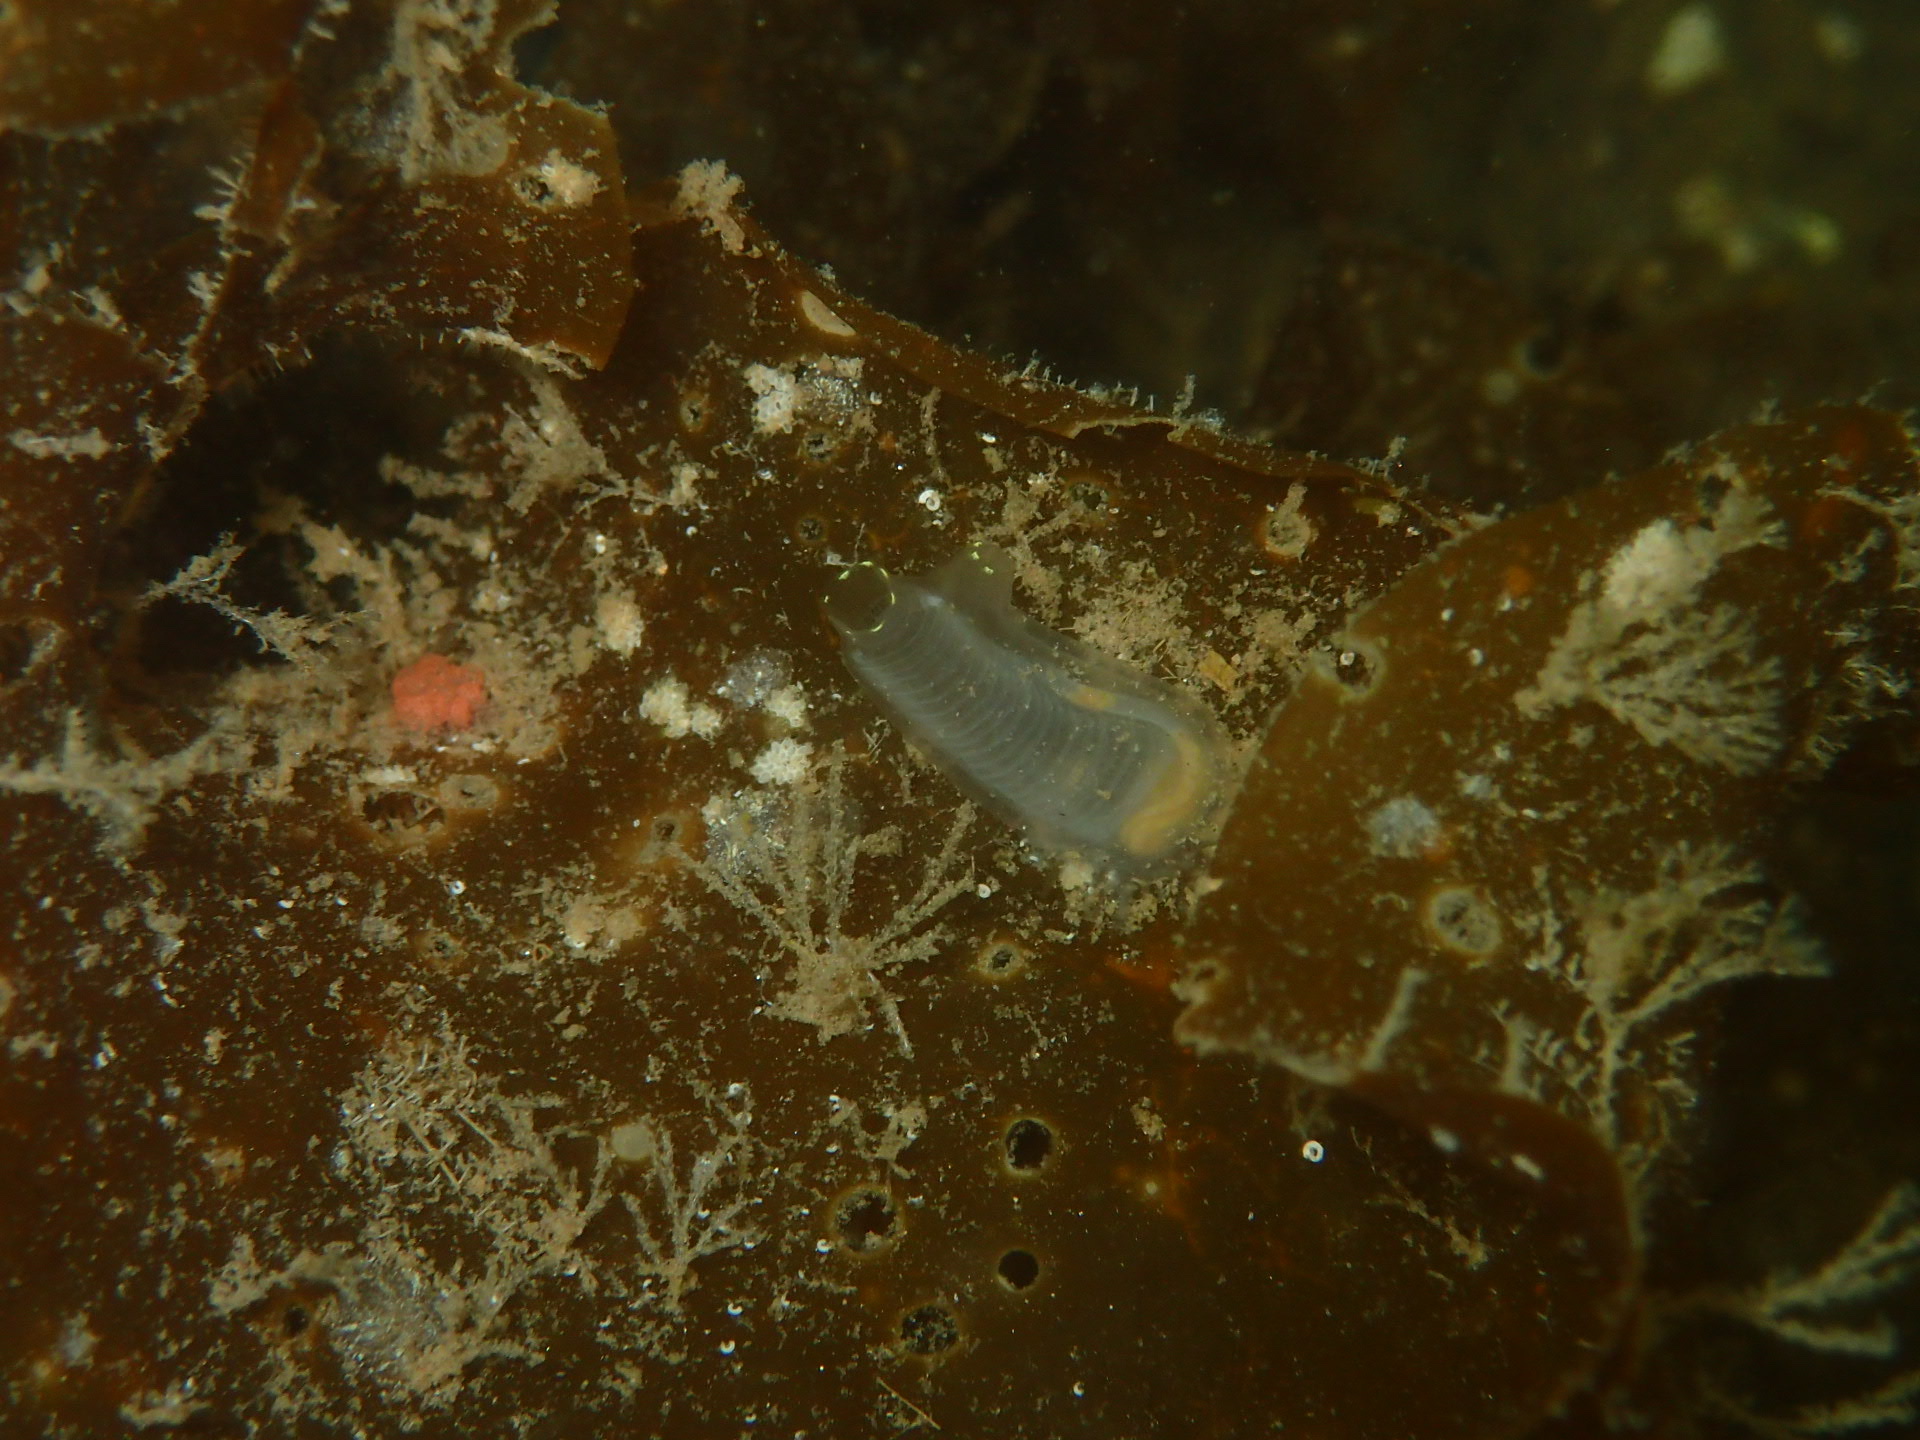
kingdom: Animalia
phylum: Chordata
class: Ascidiacea
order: Phlebobranchia
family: Cionidae
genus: Ciona
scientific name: Ciona intestinalis
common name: Vase tunicate
